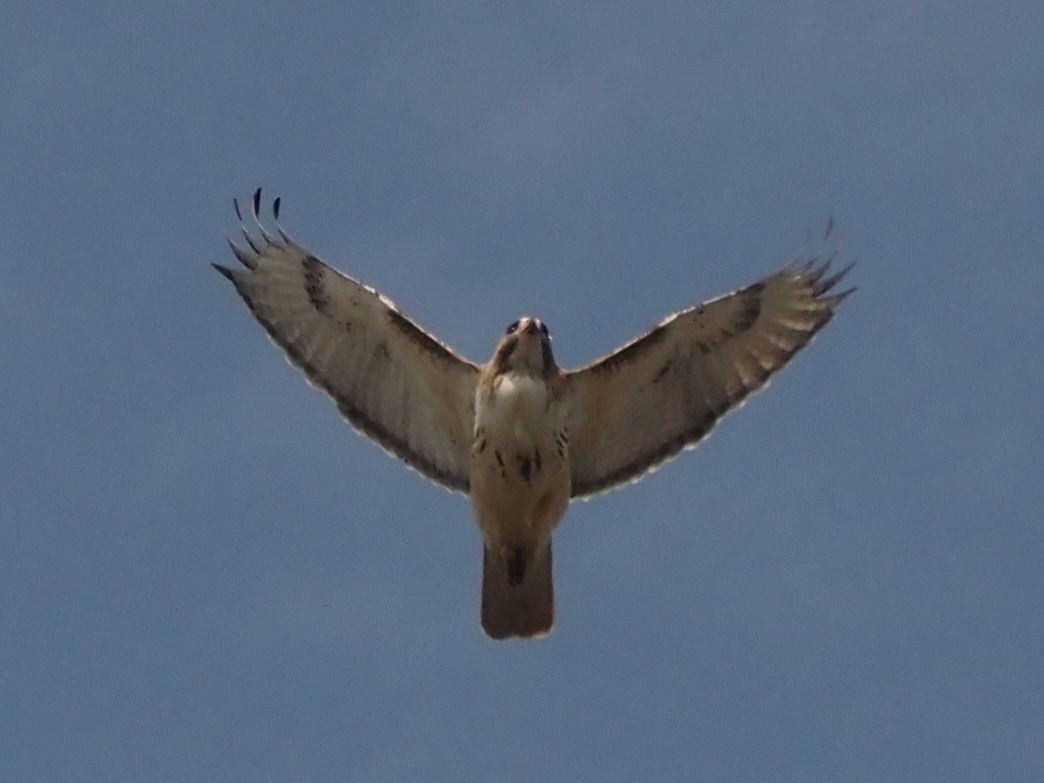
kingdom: Animalia
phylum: Chordata
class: Aves
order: Accipitriformes
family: Accipitridae
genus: Buteo
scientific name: Buteo jamaicensis
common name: Red-tailed hawk
